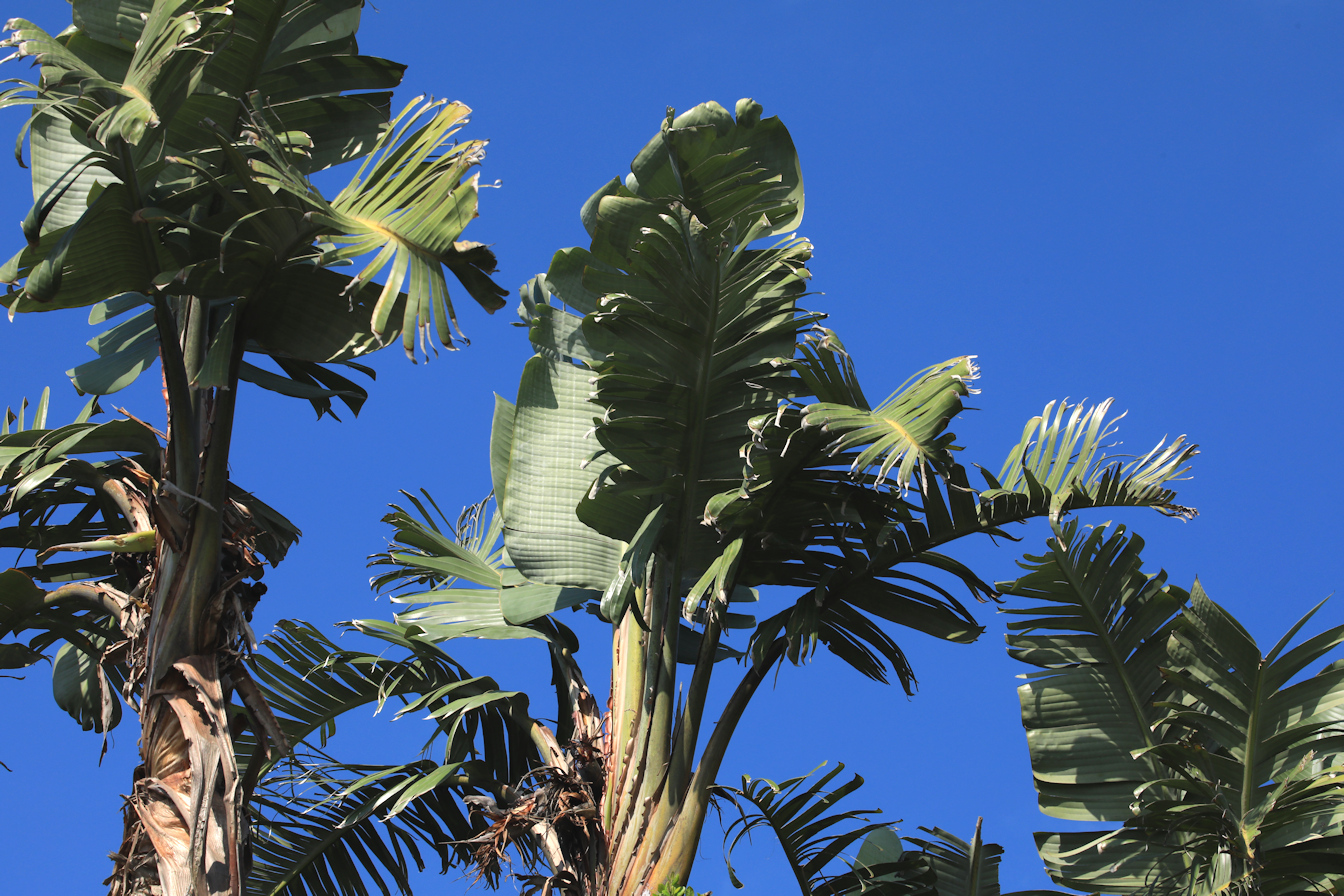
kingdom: Plantae
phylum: Tracheophyta
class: Liliopsida
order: Zingiberales
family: Strelitziaceae
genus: Strelitzia
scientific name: Strelitzia nicolai
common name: Bird-of-paradise tree
